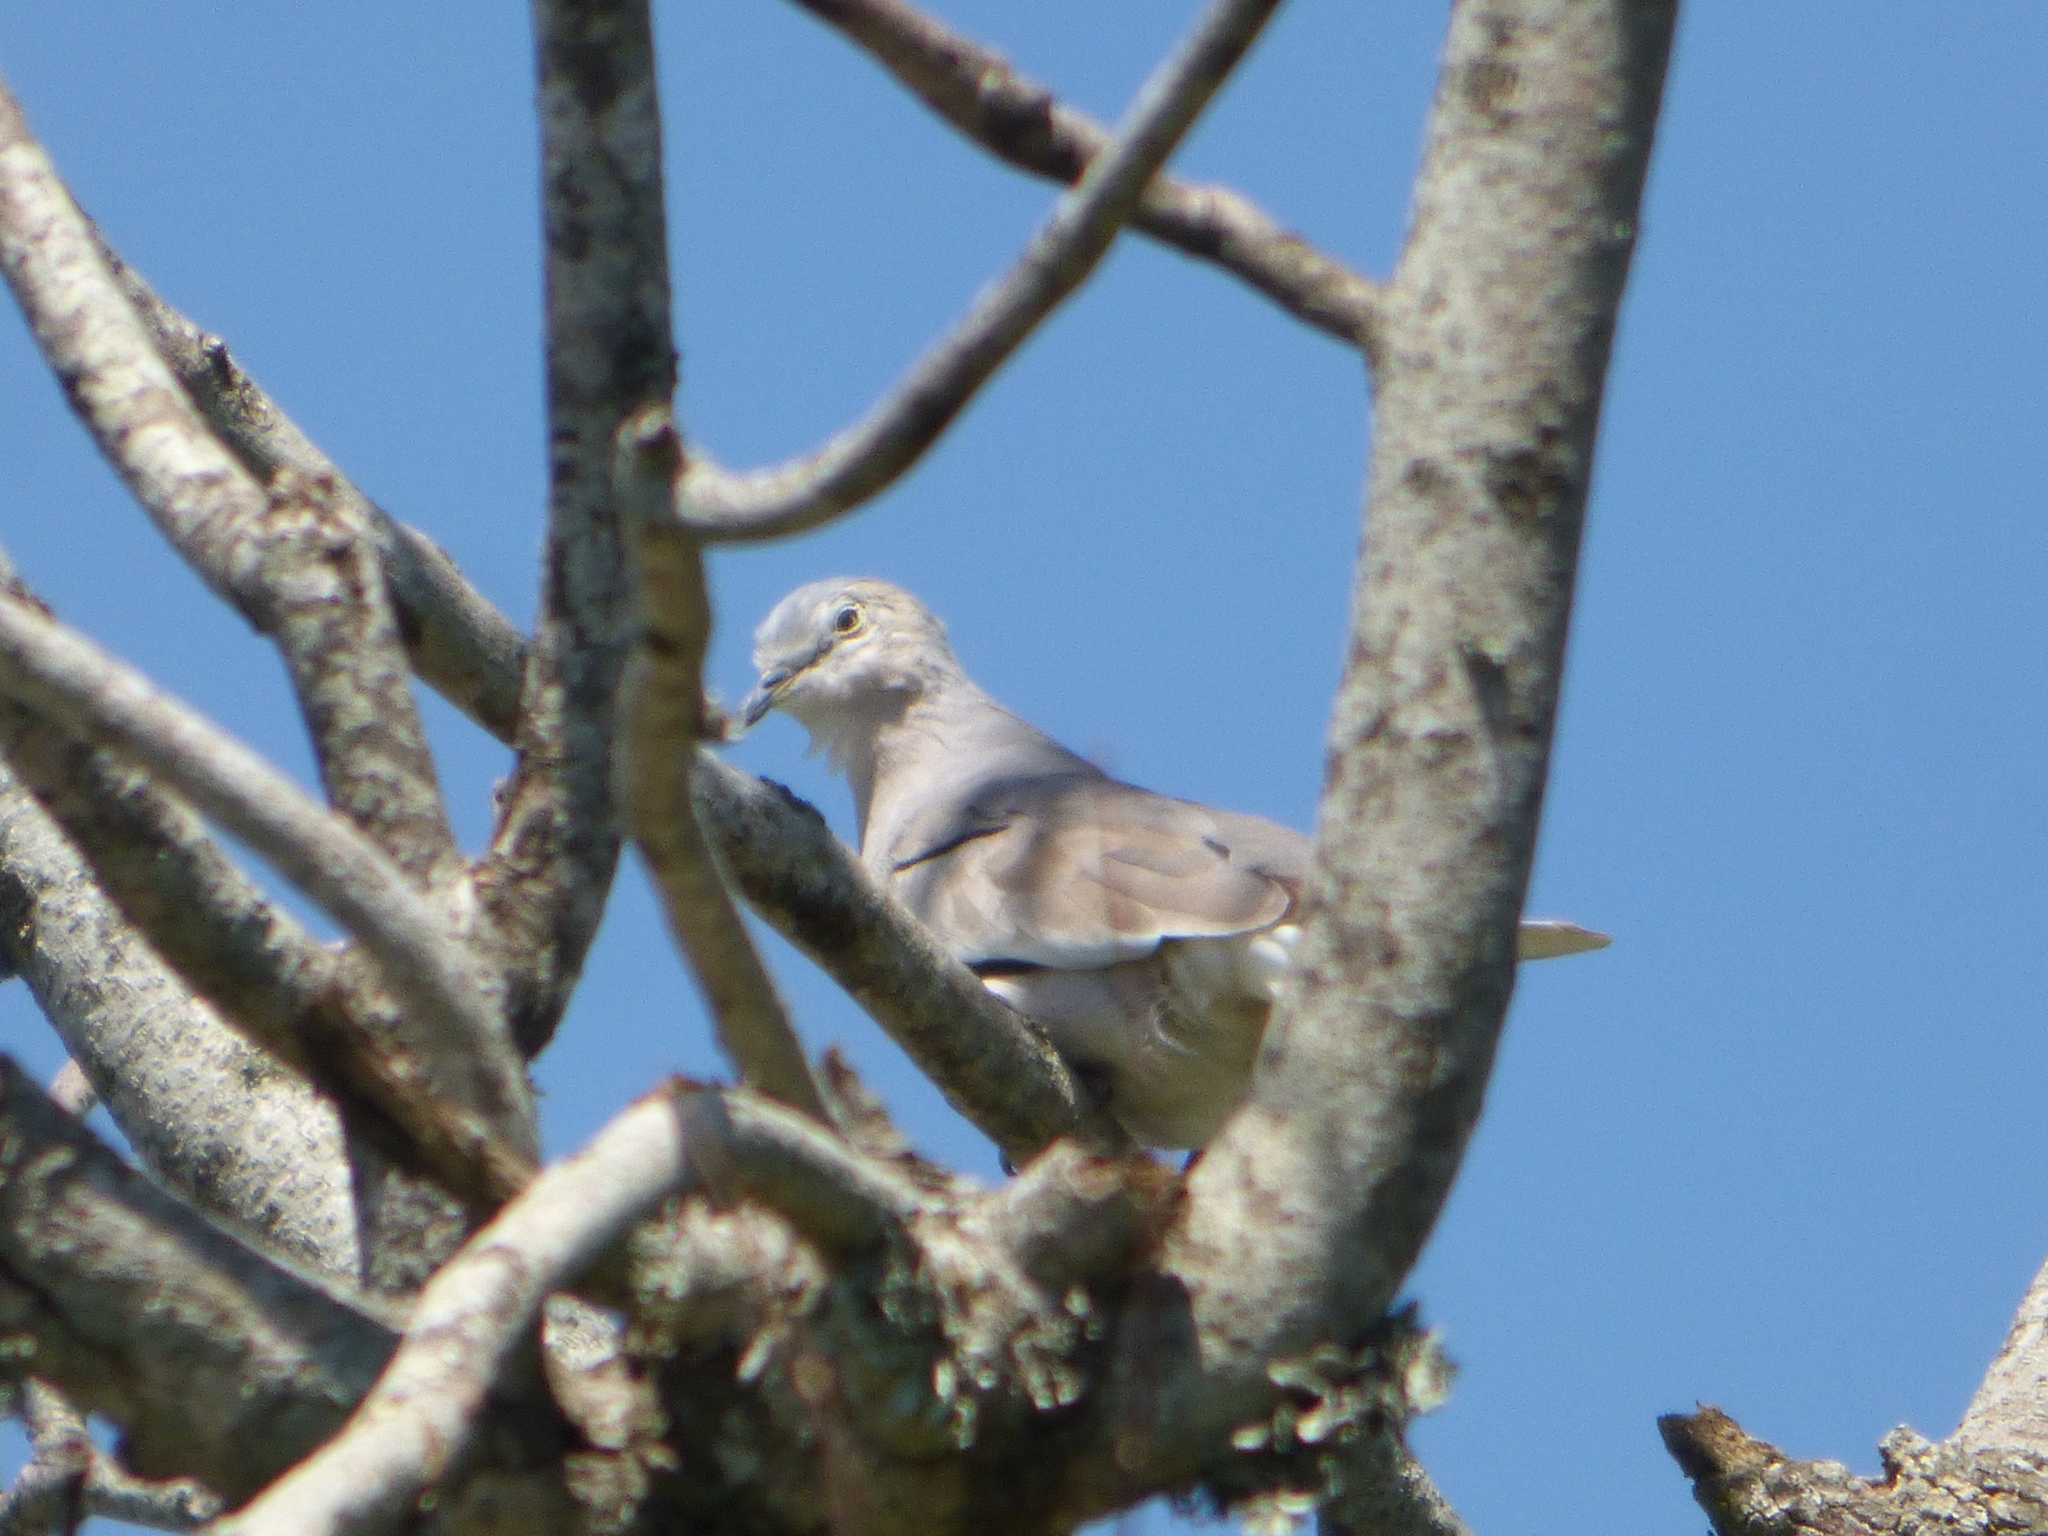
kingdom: Animalia
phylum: Chordata
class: Aves
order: Columbiformes
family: Columbidae
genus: Columbina
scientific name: Columbina picui
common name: Picui ground dove
